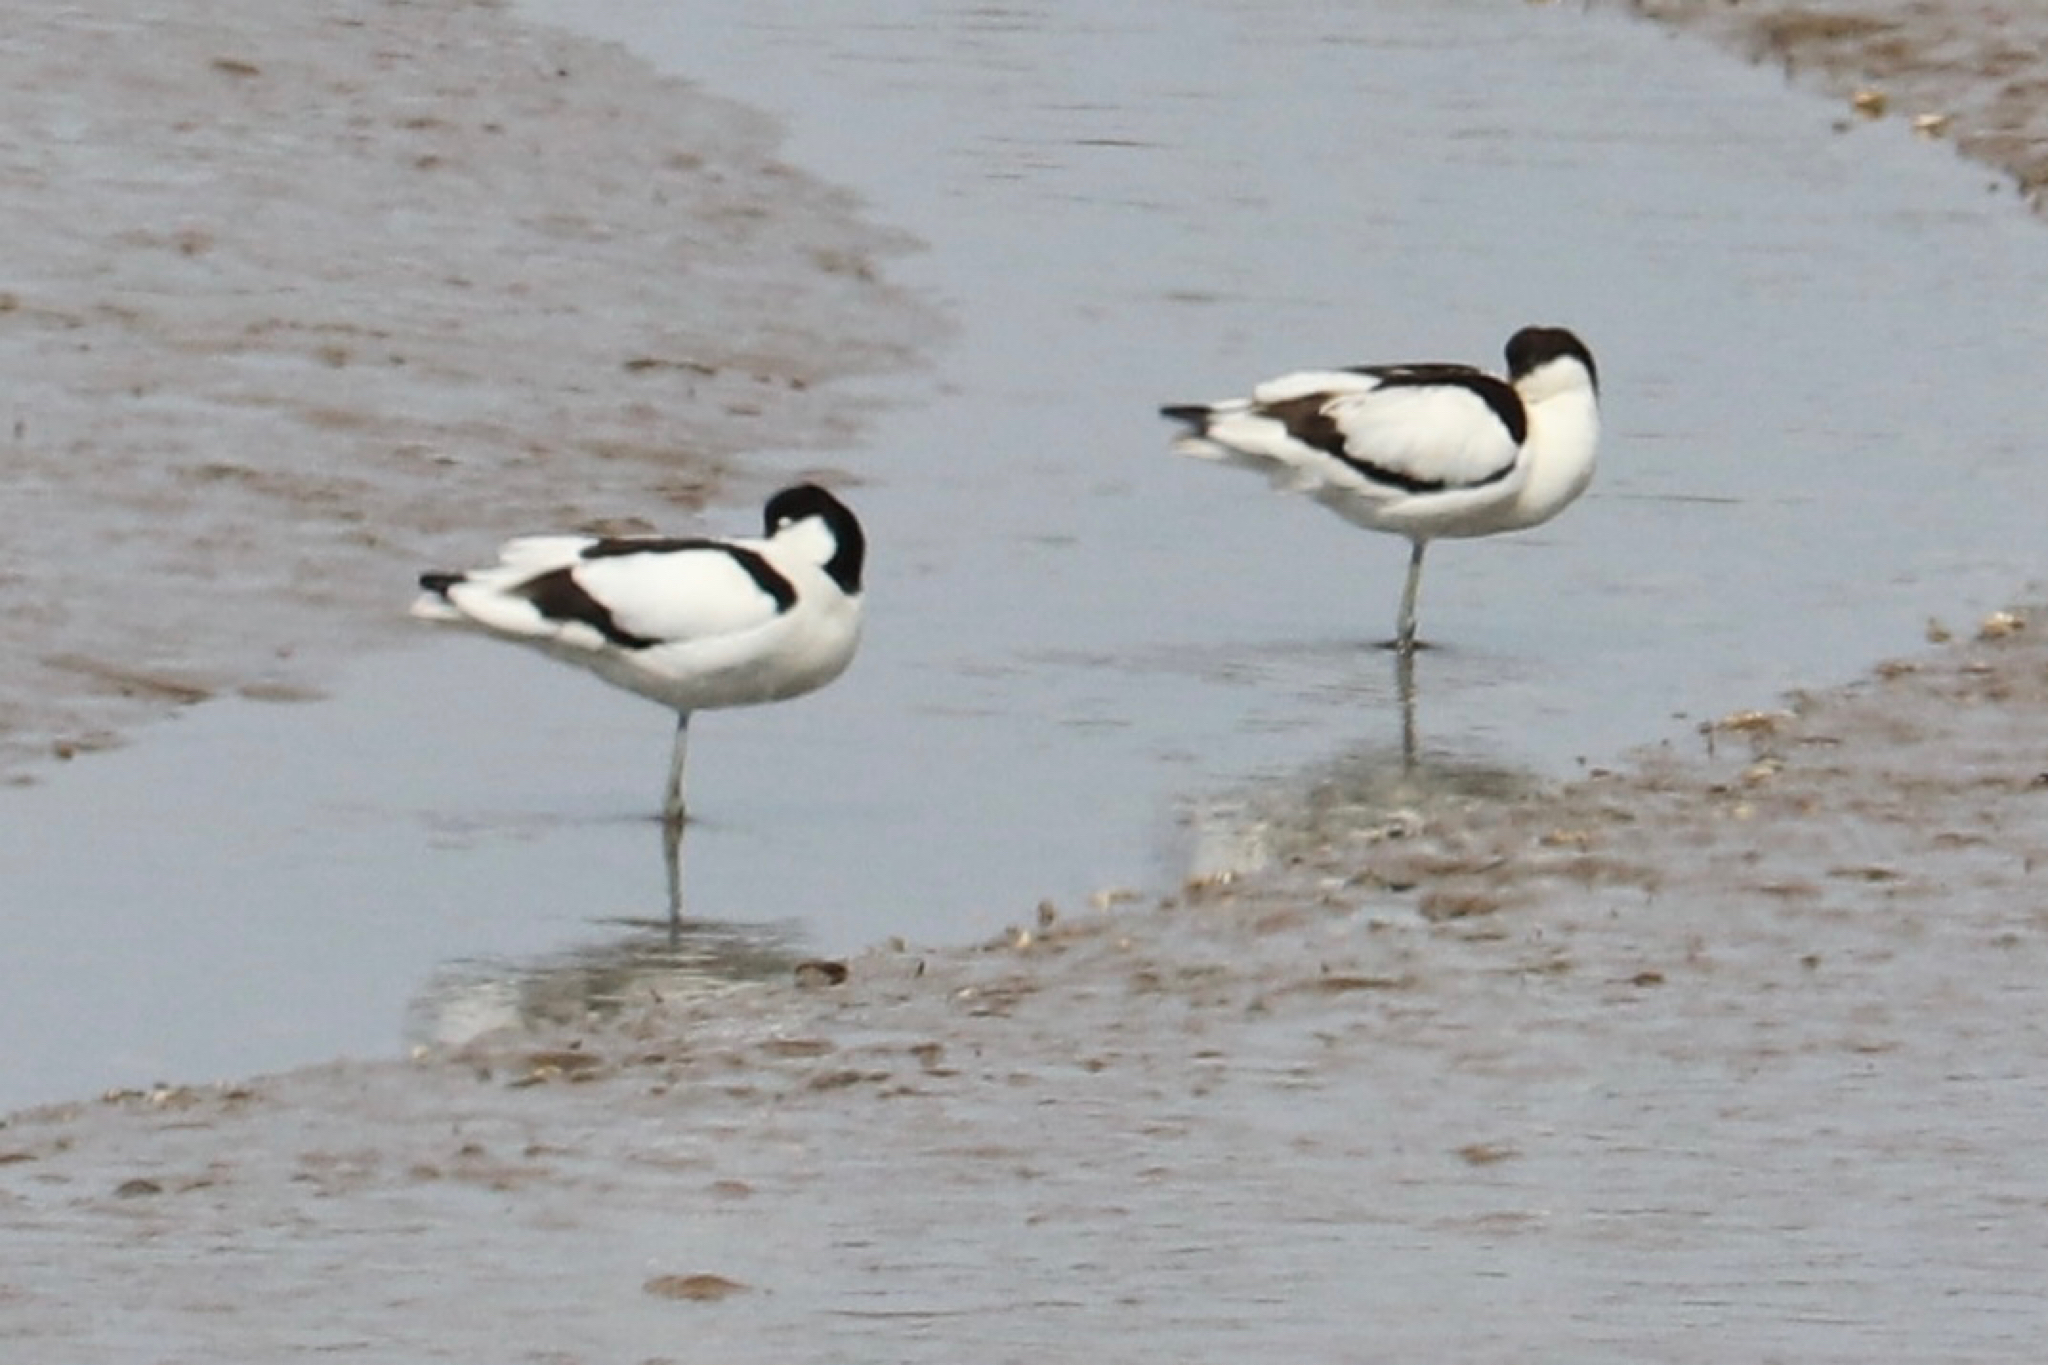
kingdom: Animalia
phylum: Chordata
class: Aves
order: Charadriiformes
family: Recurvirostridae
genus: Recurvirostra
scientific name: Recurvirostra avosetta
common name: Pied avocet
